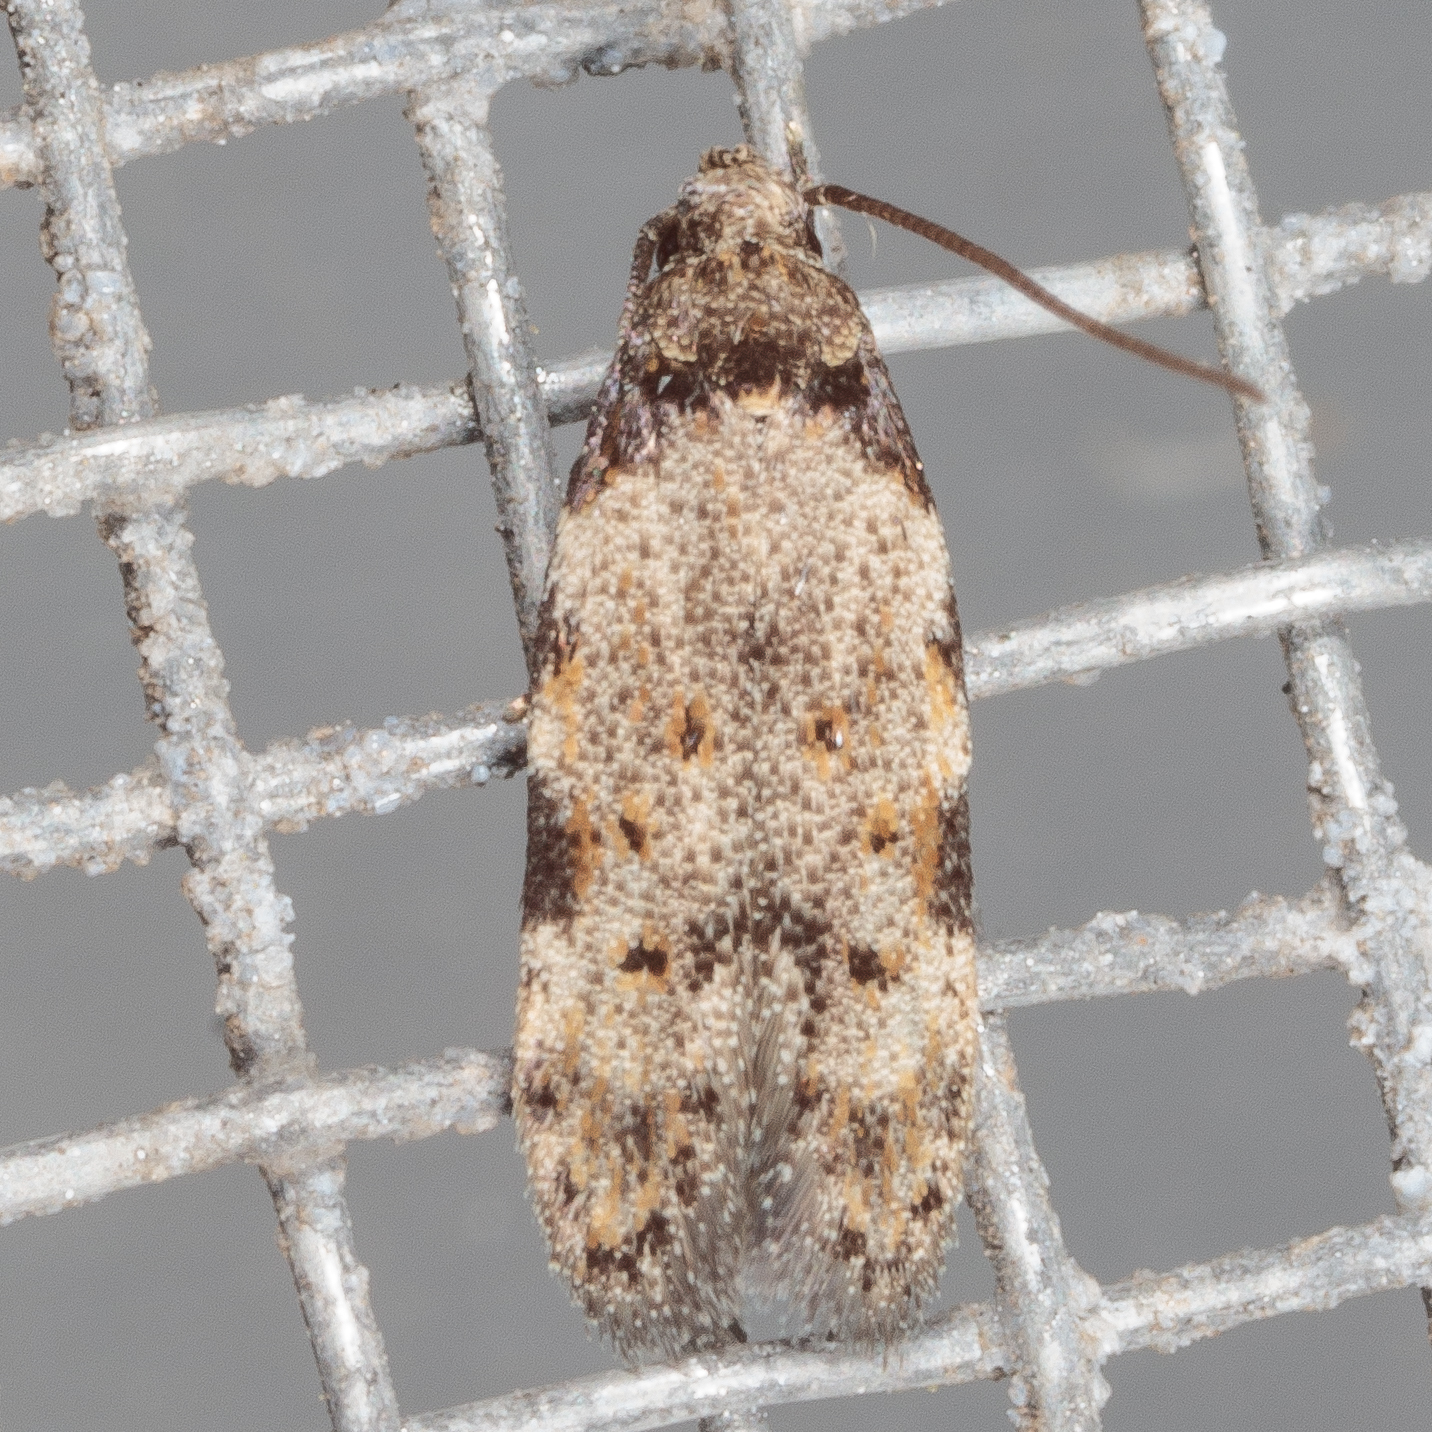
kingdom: Animalia
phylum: Arthropoda
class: Insecta
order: Lepidoptera
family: Autostichidae
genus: Taygete
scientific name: Taygete attributella
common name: Triangle-marked twirler moth
